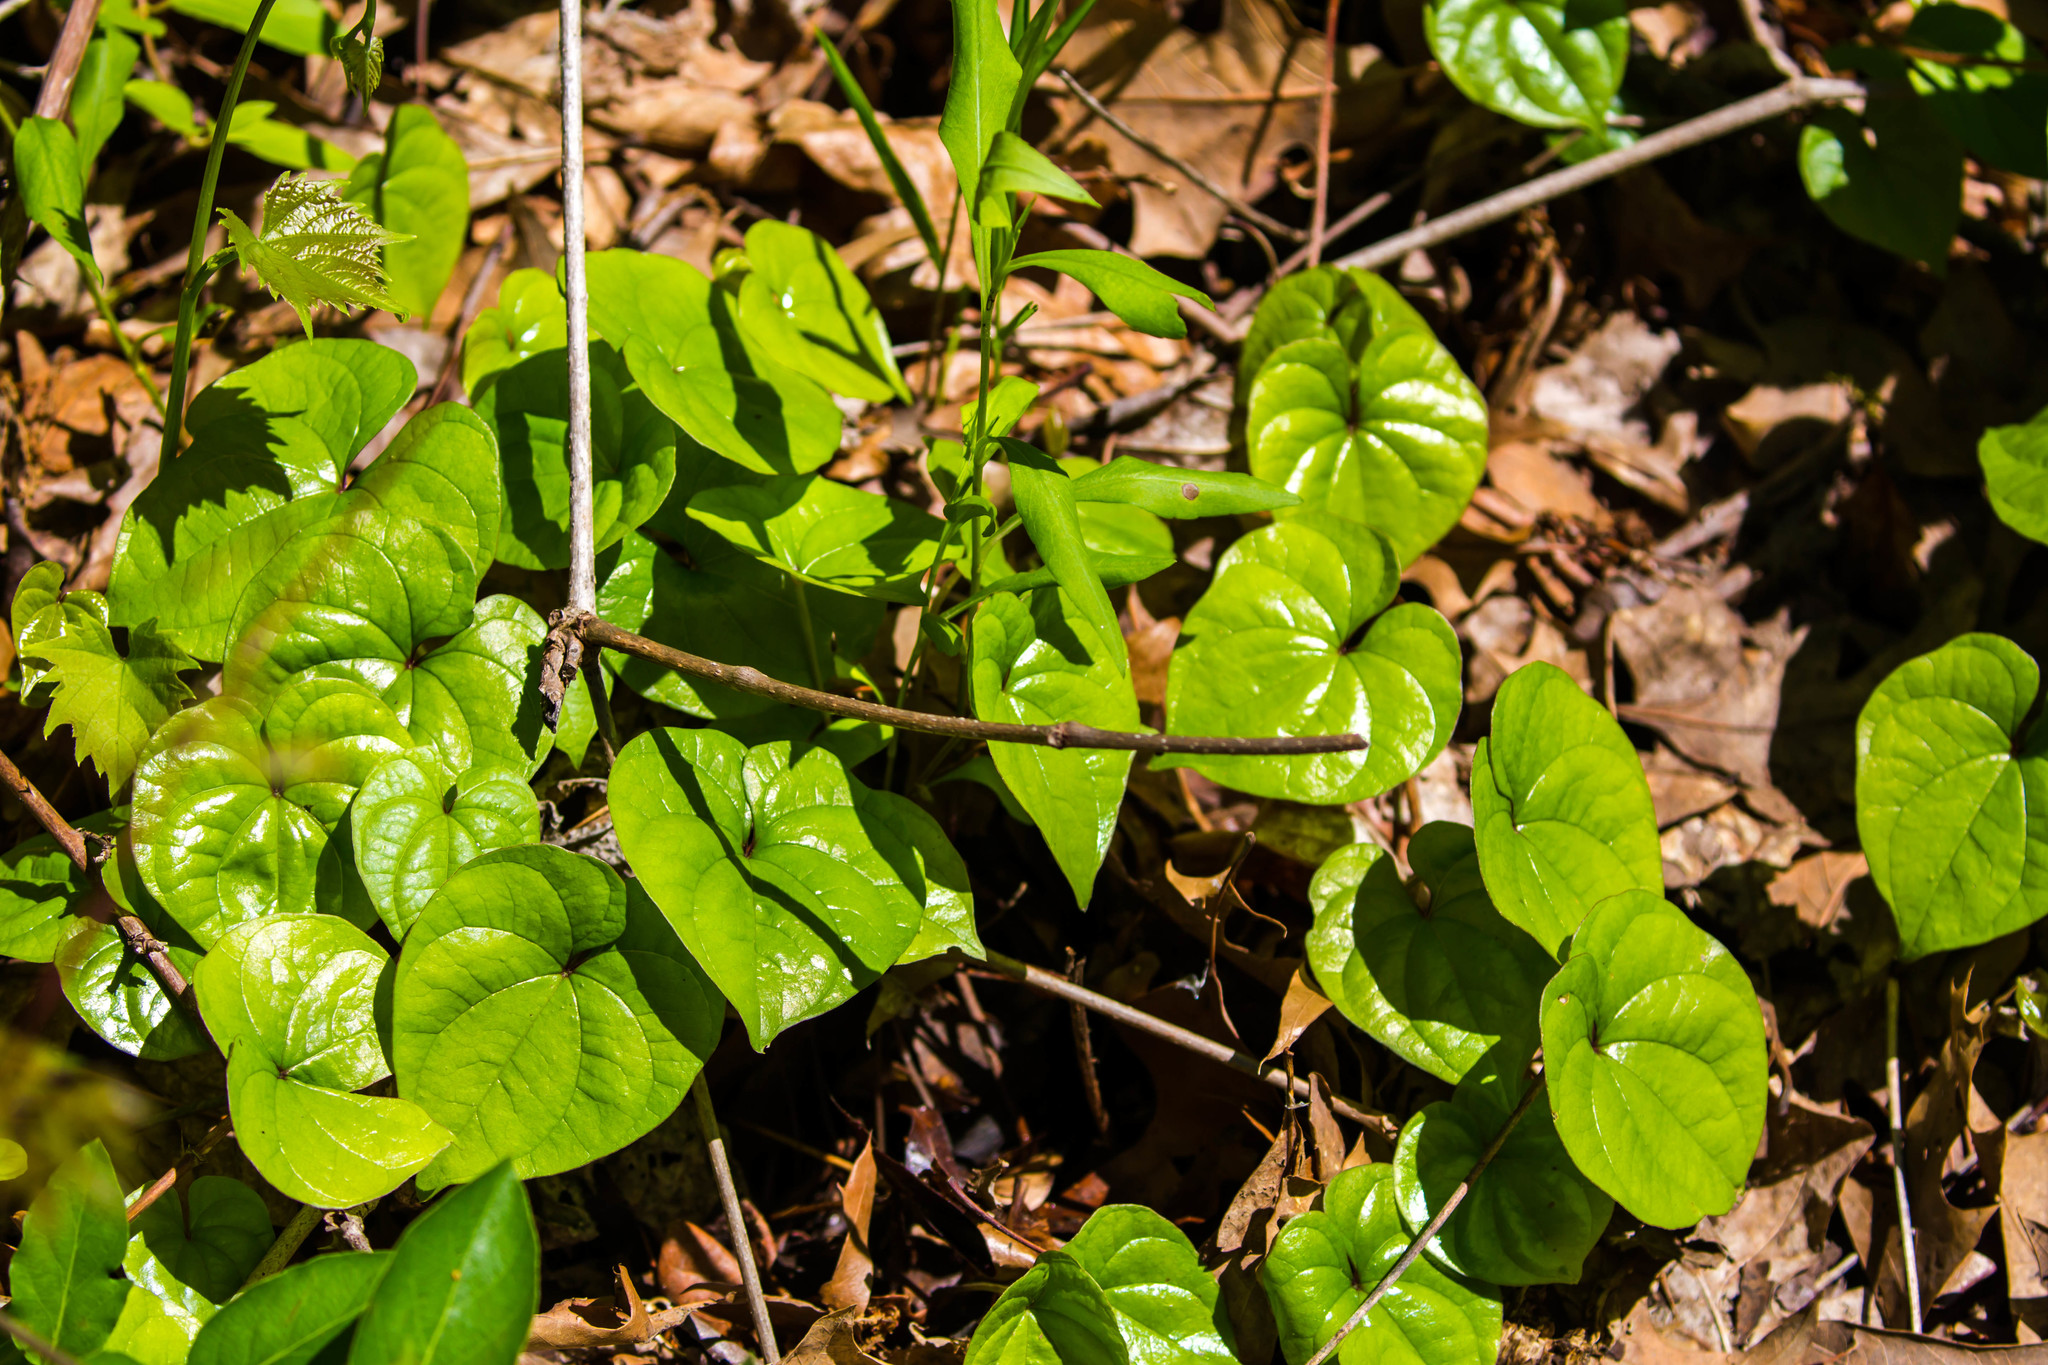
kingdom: Plantae
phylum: Tracheophyta
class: Liliopsida
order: Dioscoreales
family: Dioscoreaceae
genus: Dioscorea
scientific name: Dioscorea polystachya
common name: Chinese yam
